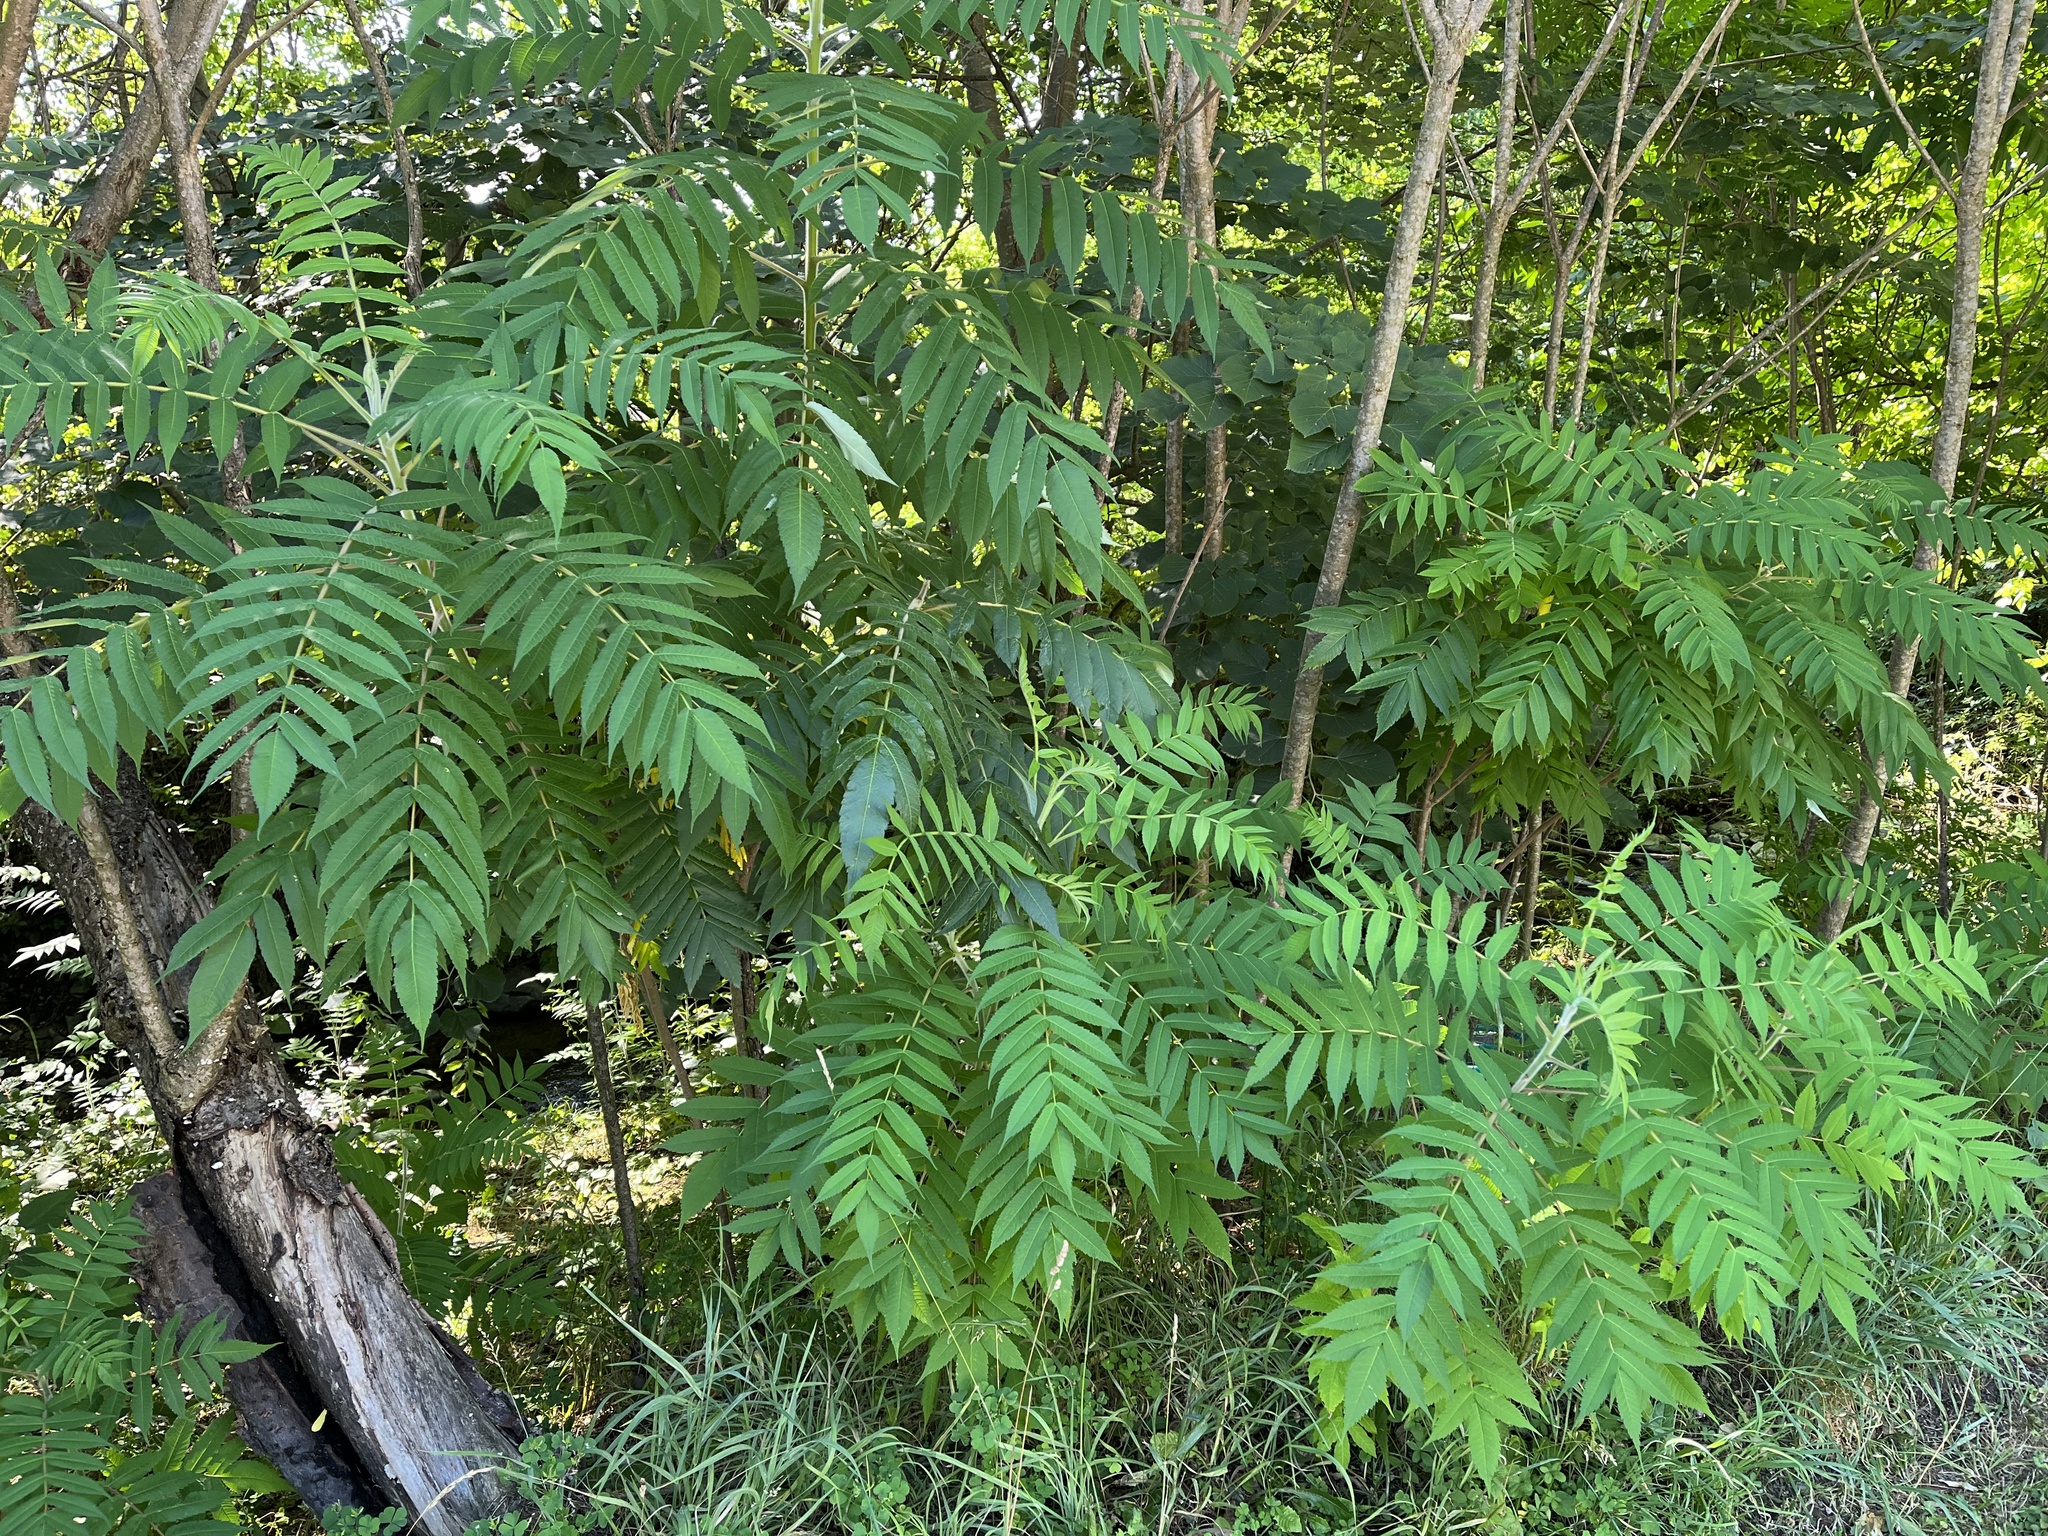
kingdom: Plantae
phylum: Tracheophyta
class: Magnoliopsida
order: Sapindales
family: Anacardiaceae
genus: Rhus
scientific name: Rhus typhina
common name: Staghorn sumac
